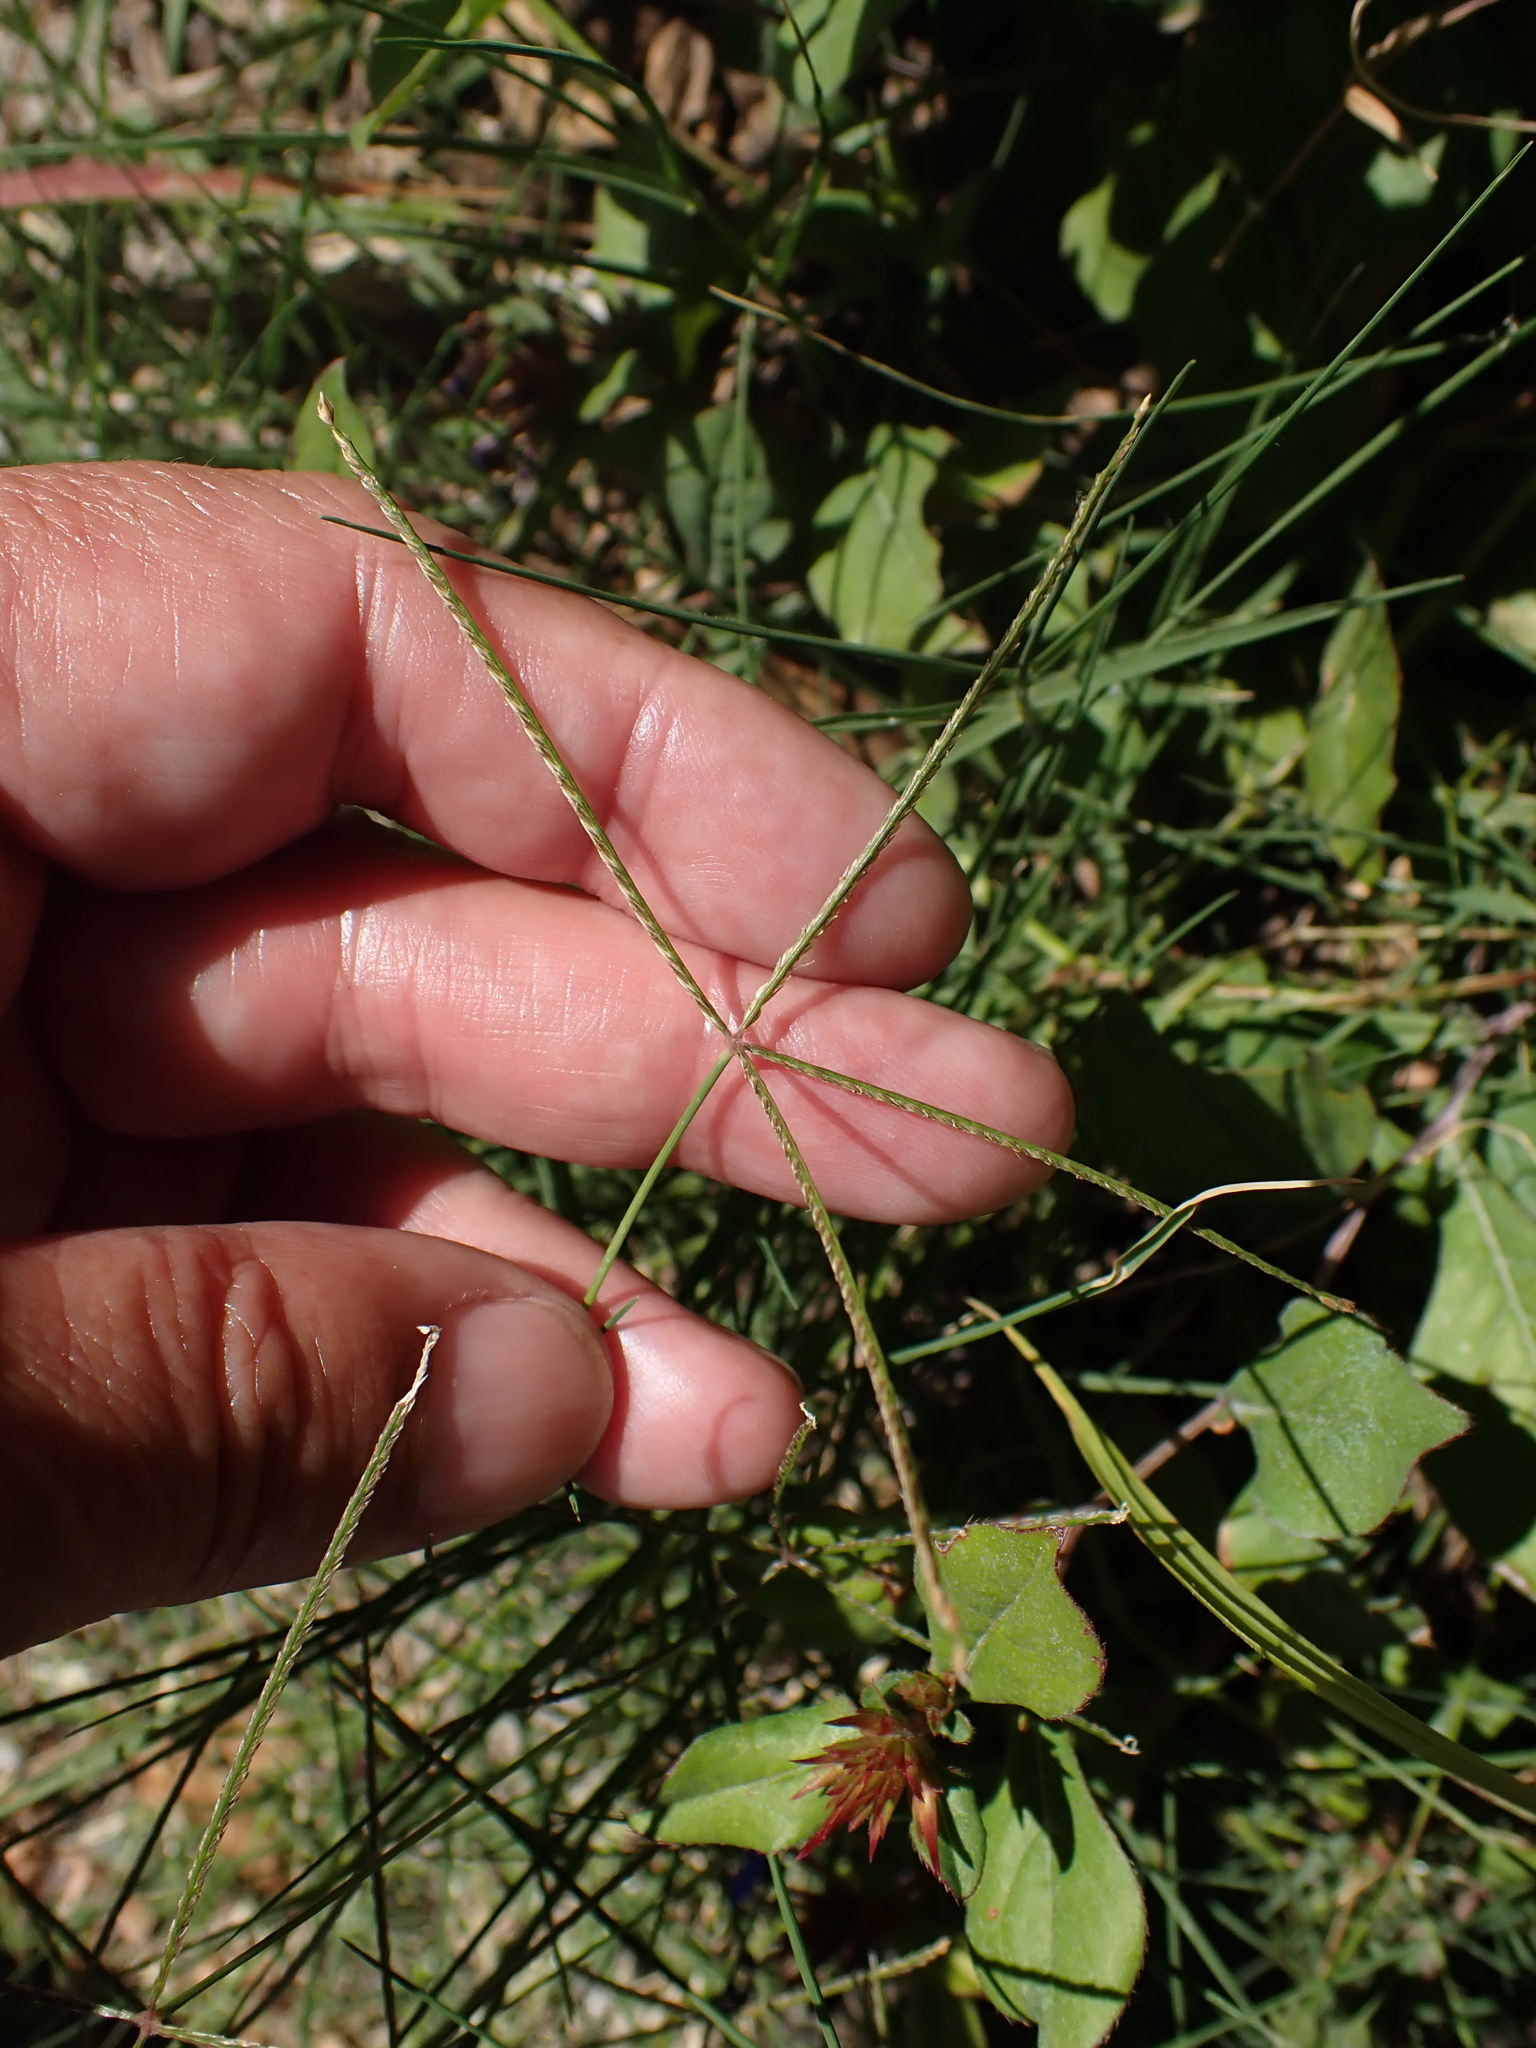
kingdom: Plantae
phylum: Tracheophyta
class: Liliopsida
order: Poales
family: Poaceae
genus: Digitaria
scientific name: Digitaria sanguinalis
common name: Hairy crabgrass
